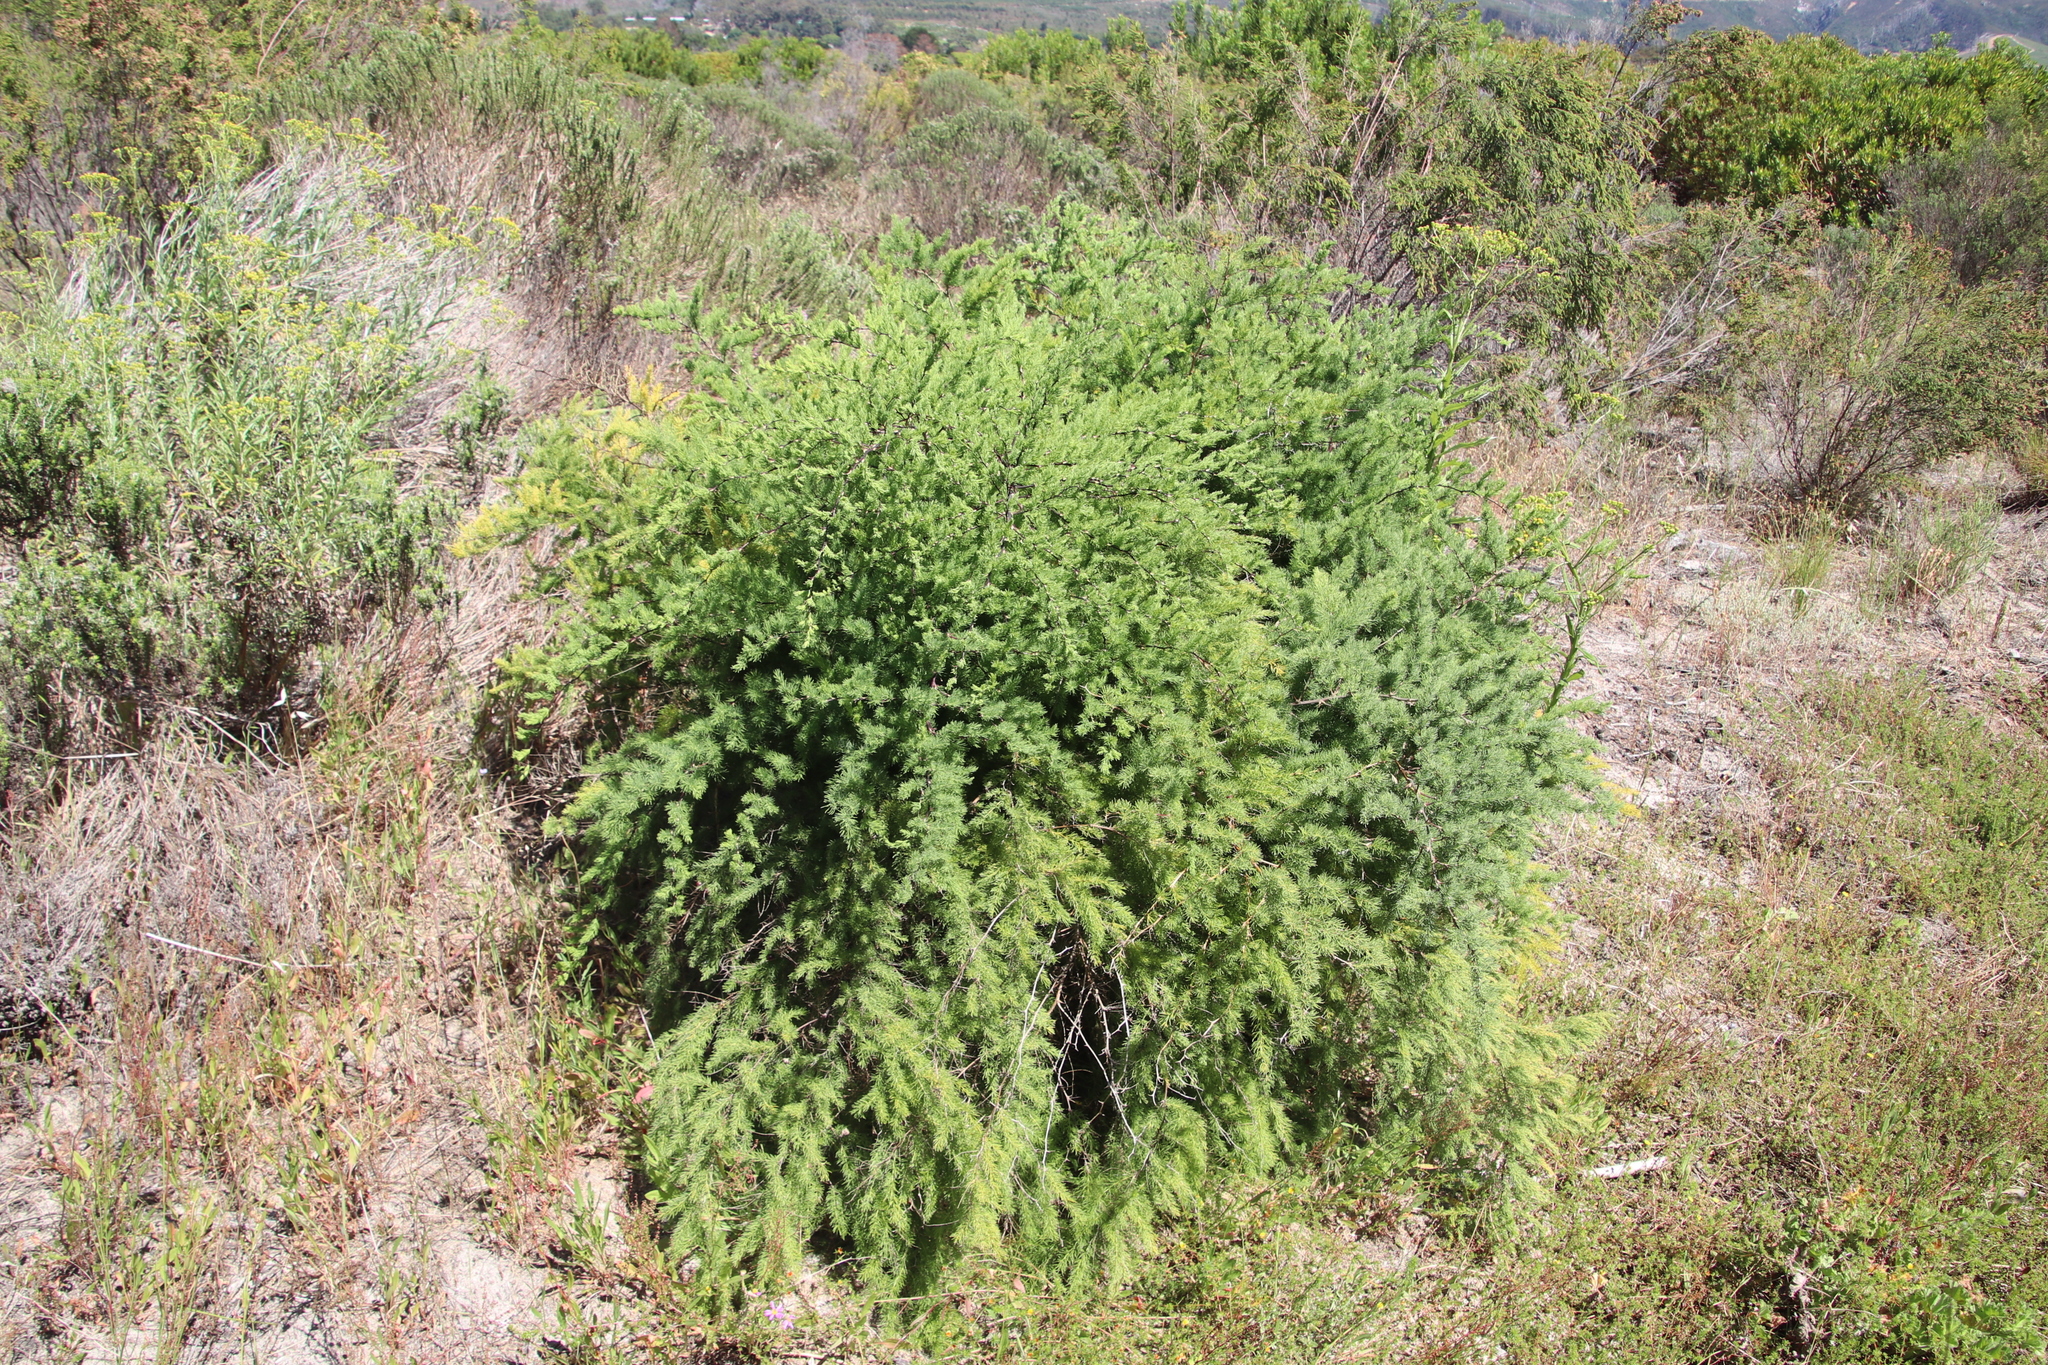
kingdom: Plantae
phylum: Tracheophyta
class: Liliopsida
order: Asparagales
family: Asparagaceae
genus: Asparagus
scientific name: Asparagus rubicundus
